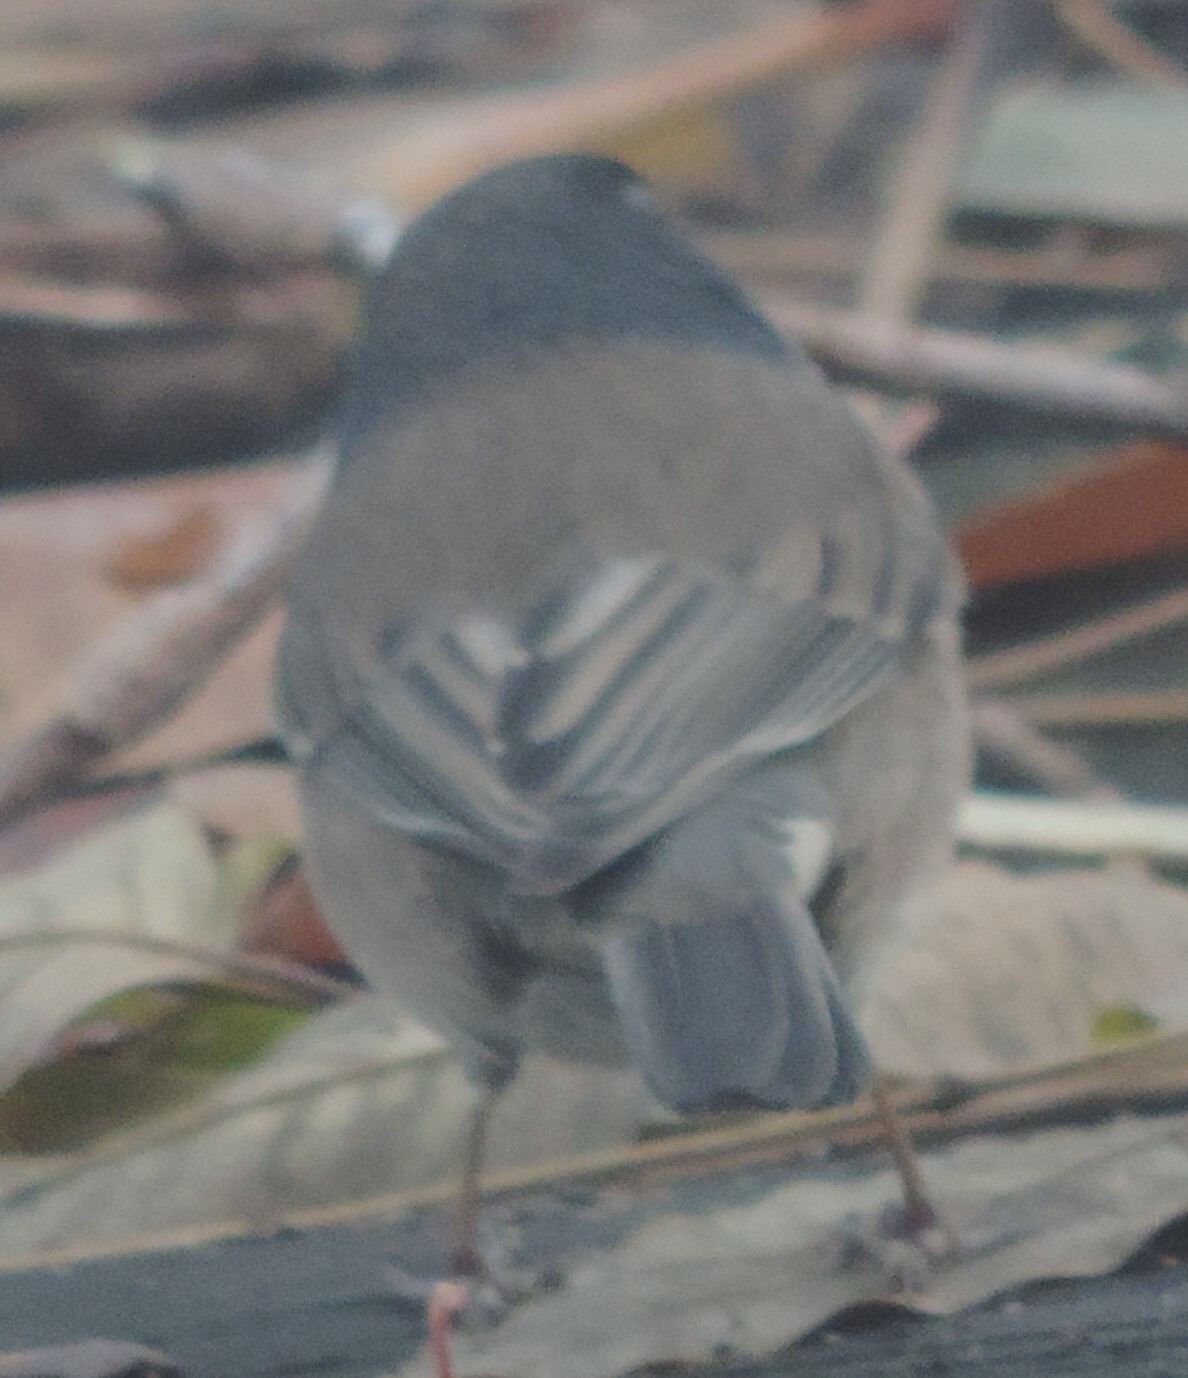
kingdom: Animalia
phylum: Chordata
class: Aves
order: Passeriformes
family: Passerellidae
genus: Junco
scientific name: Junco hyemalis
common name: Dark-eyed junco
